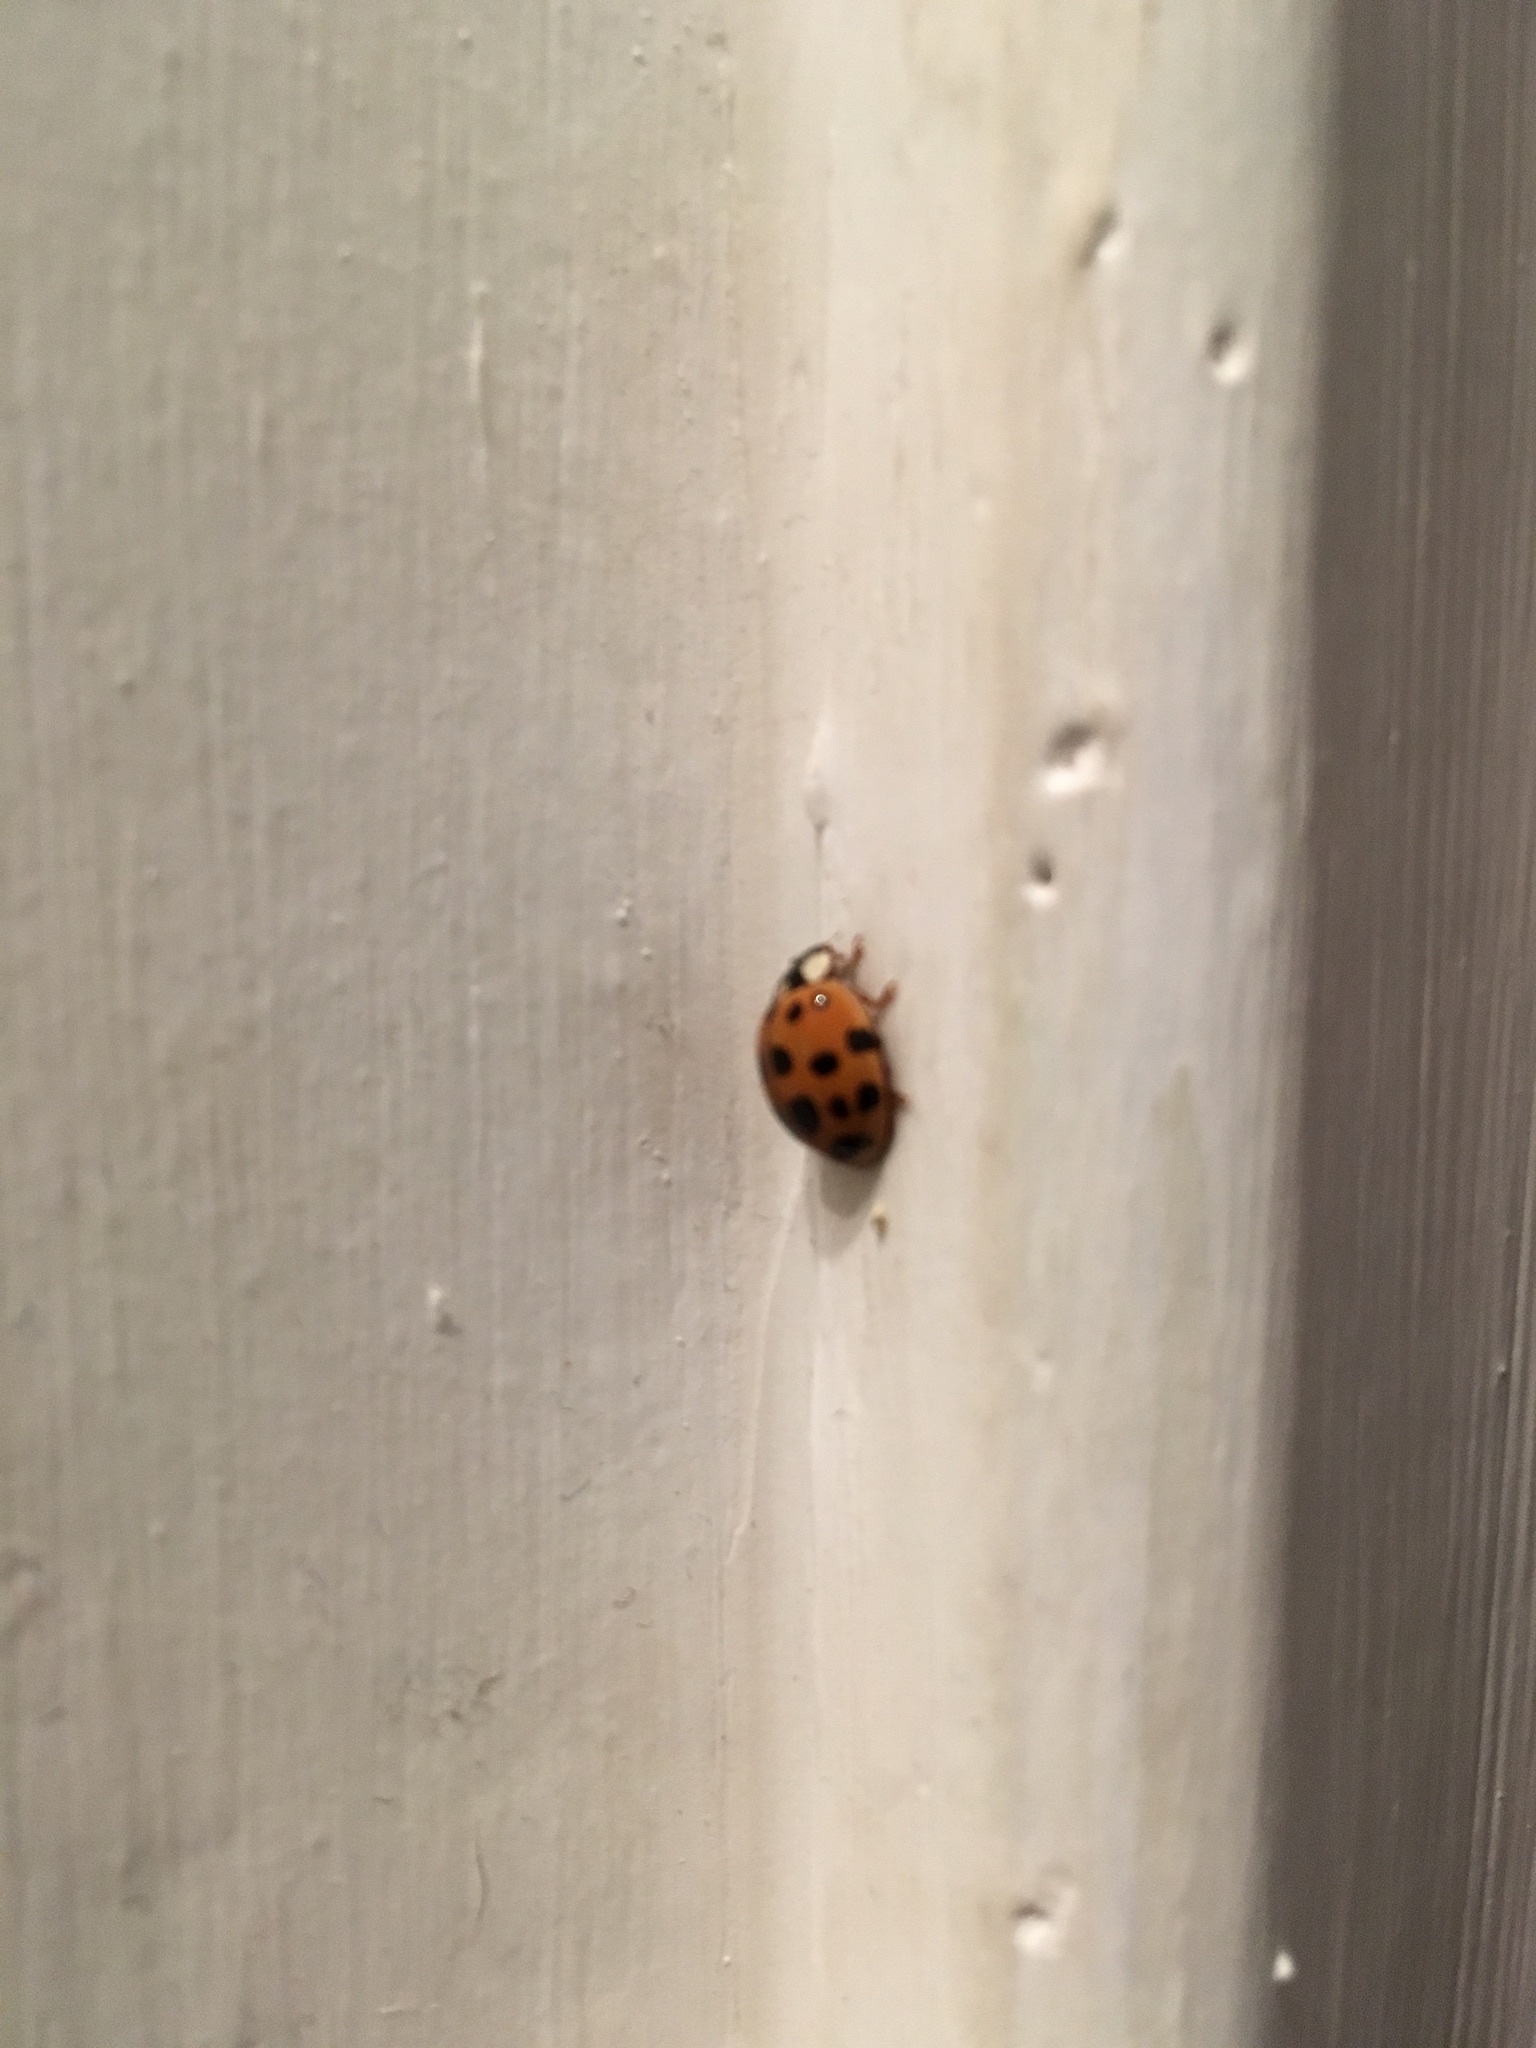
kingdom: Animalia
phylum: Arthropoda
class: Insecta
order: Coleoptera
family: Coccinellidae
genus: Harmonia
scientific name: Harmonia axyridis
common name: Harlequin ladybird
